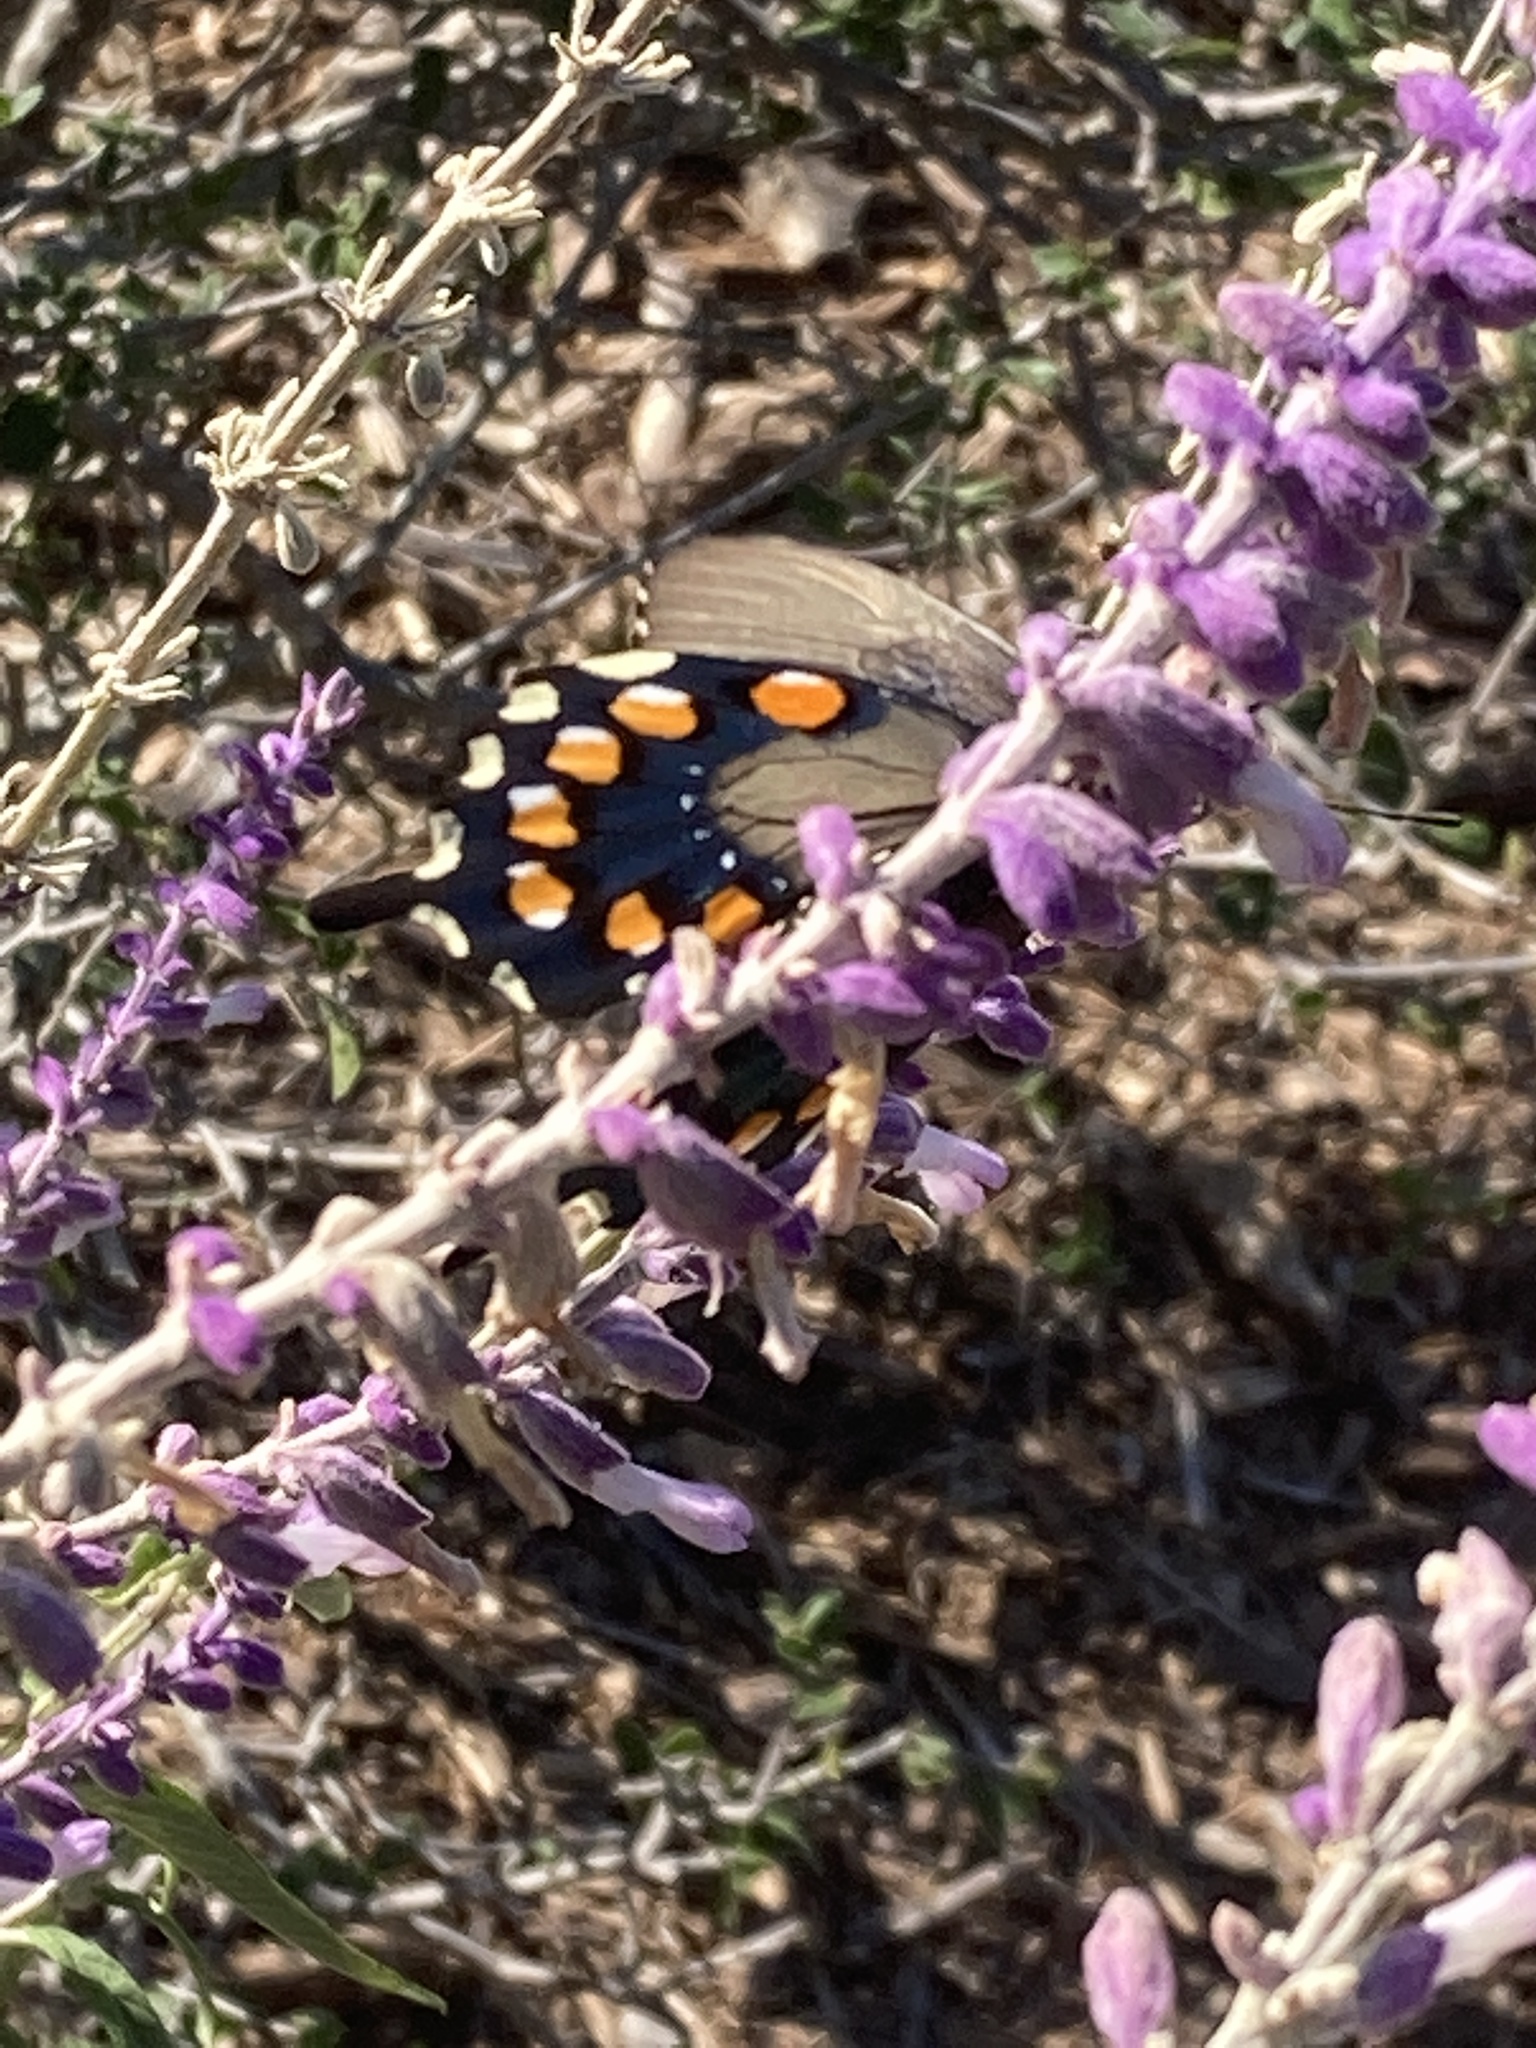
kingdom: Animalia
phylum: Arthropoda
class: Insecta
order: Lepidoptera
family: Papilionidae
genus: Battus
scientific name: Battus philenor
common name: Pipevine swallowtail
